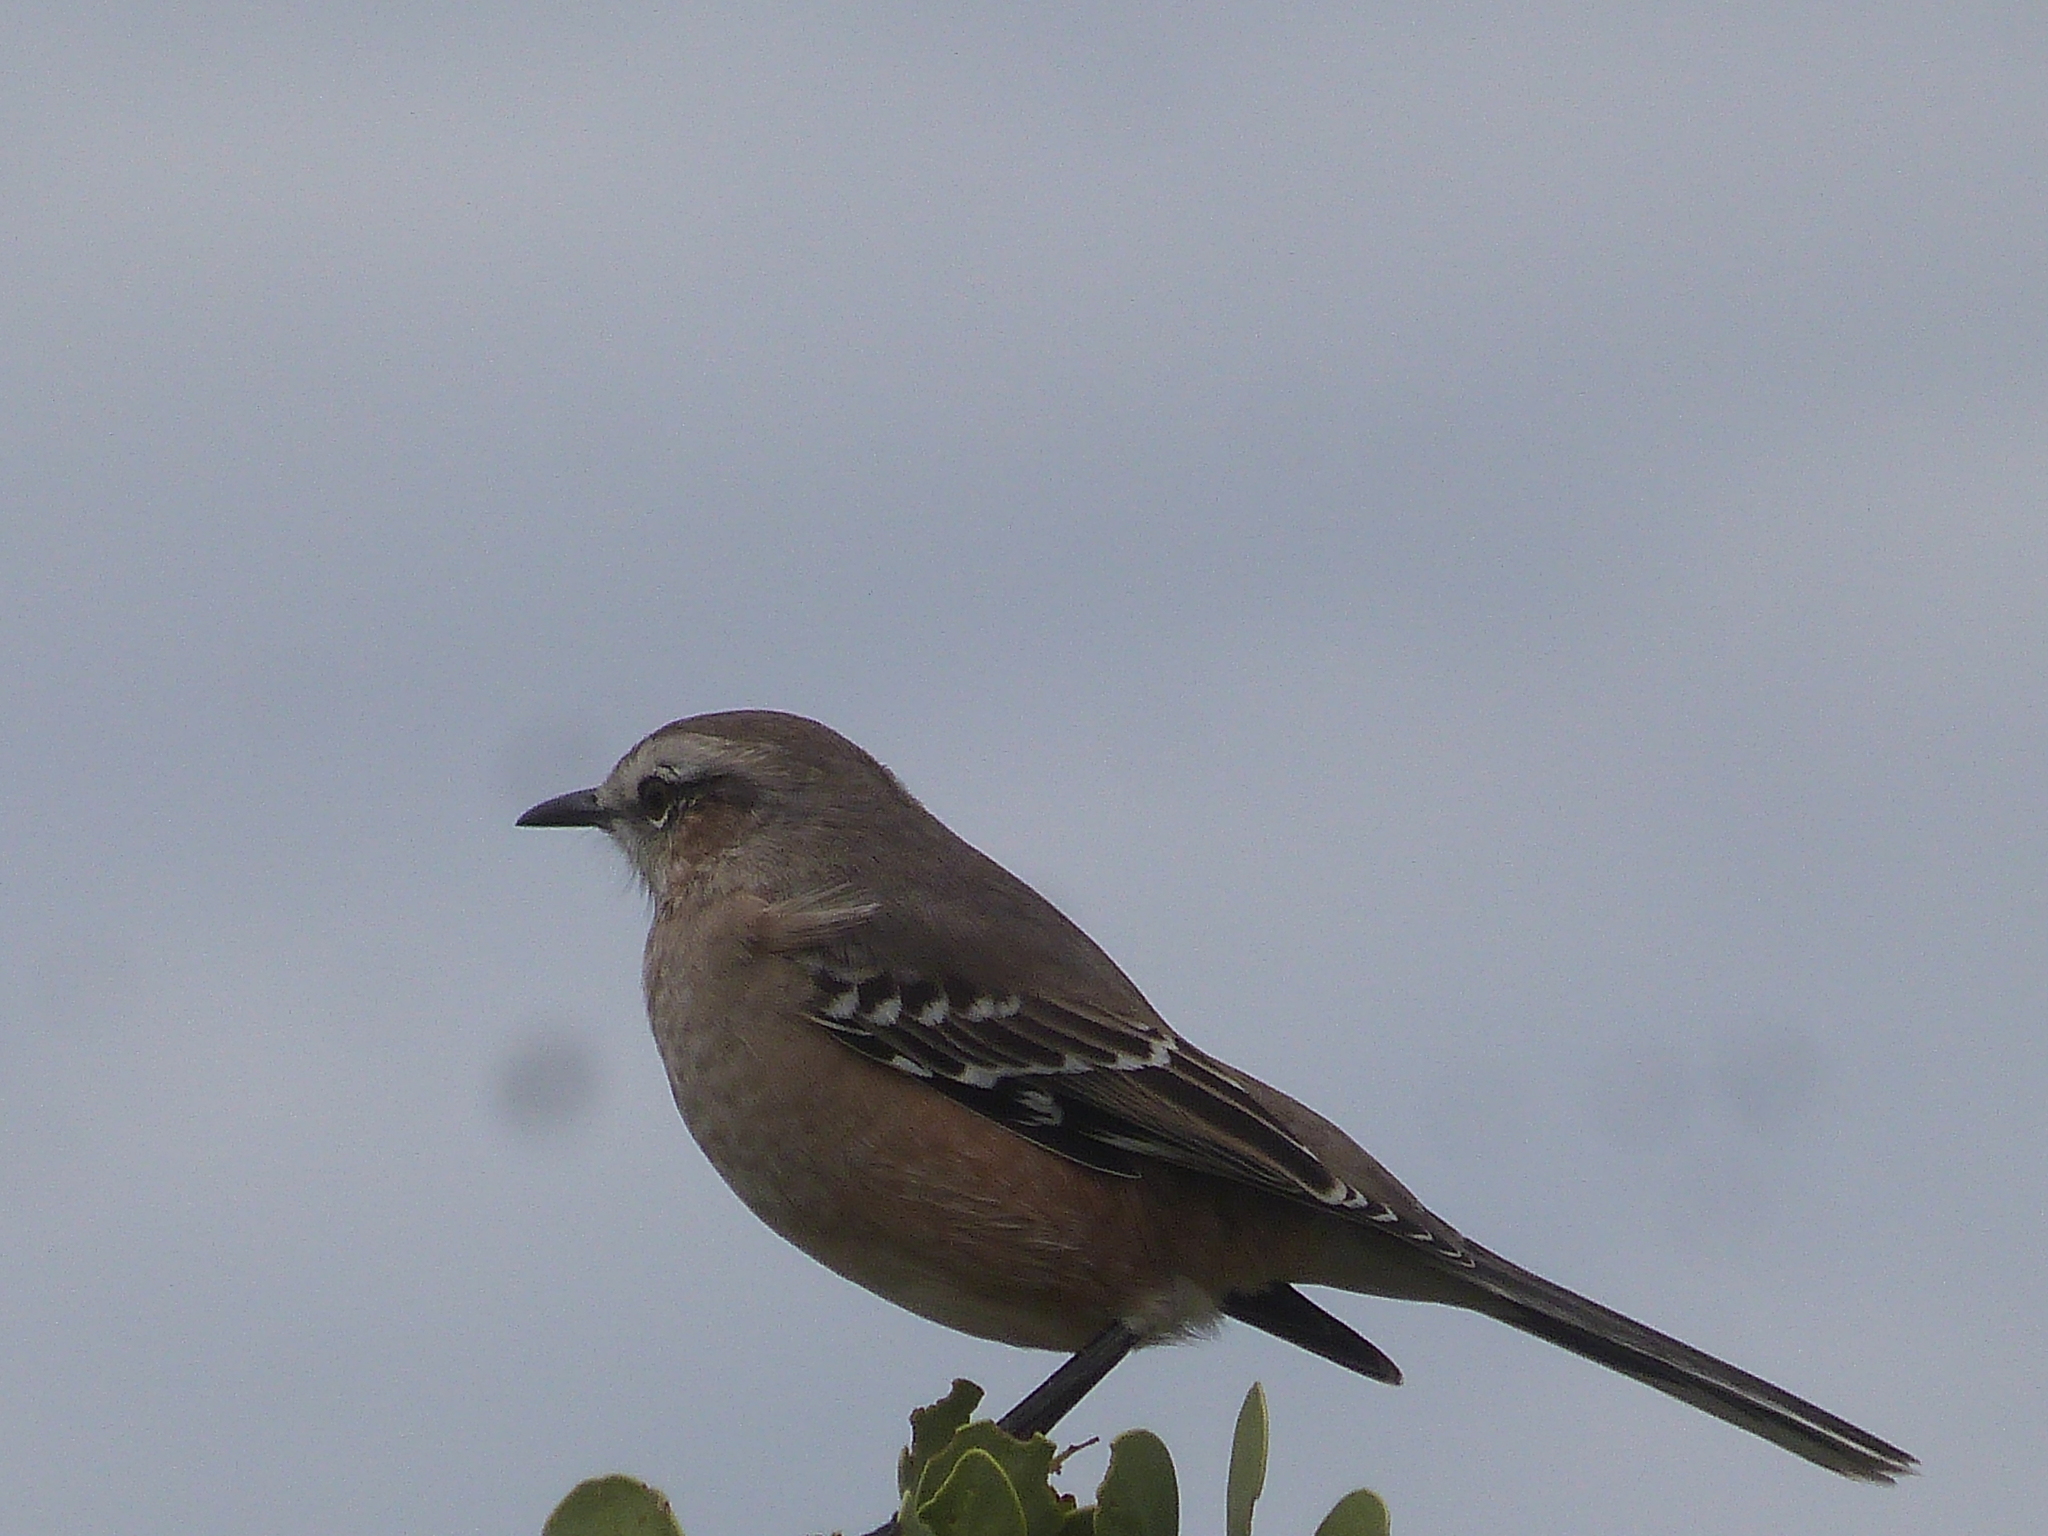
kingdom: Animalia
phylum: Chordata
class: Aves
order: Passeriformes
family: Mimidae
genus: Mimus
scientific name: Mimus patagonicus
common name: Patagonian mockingbird
